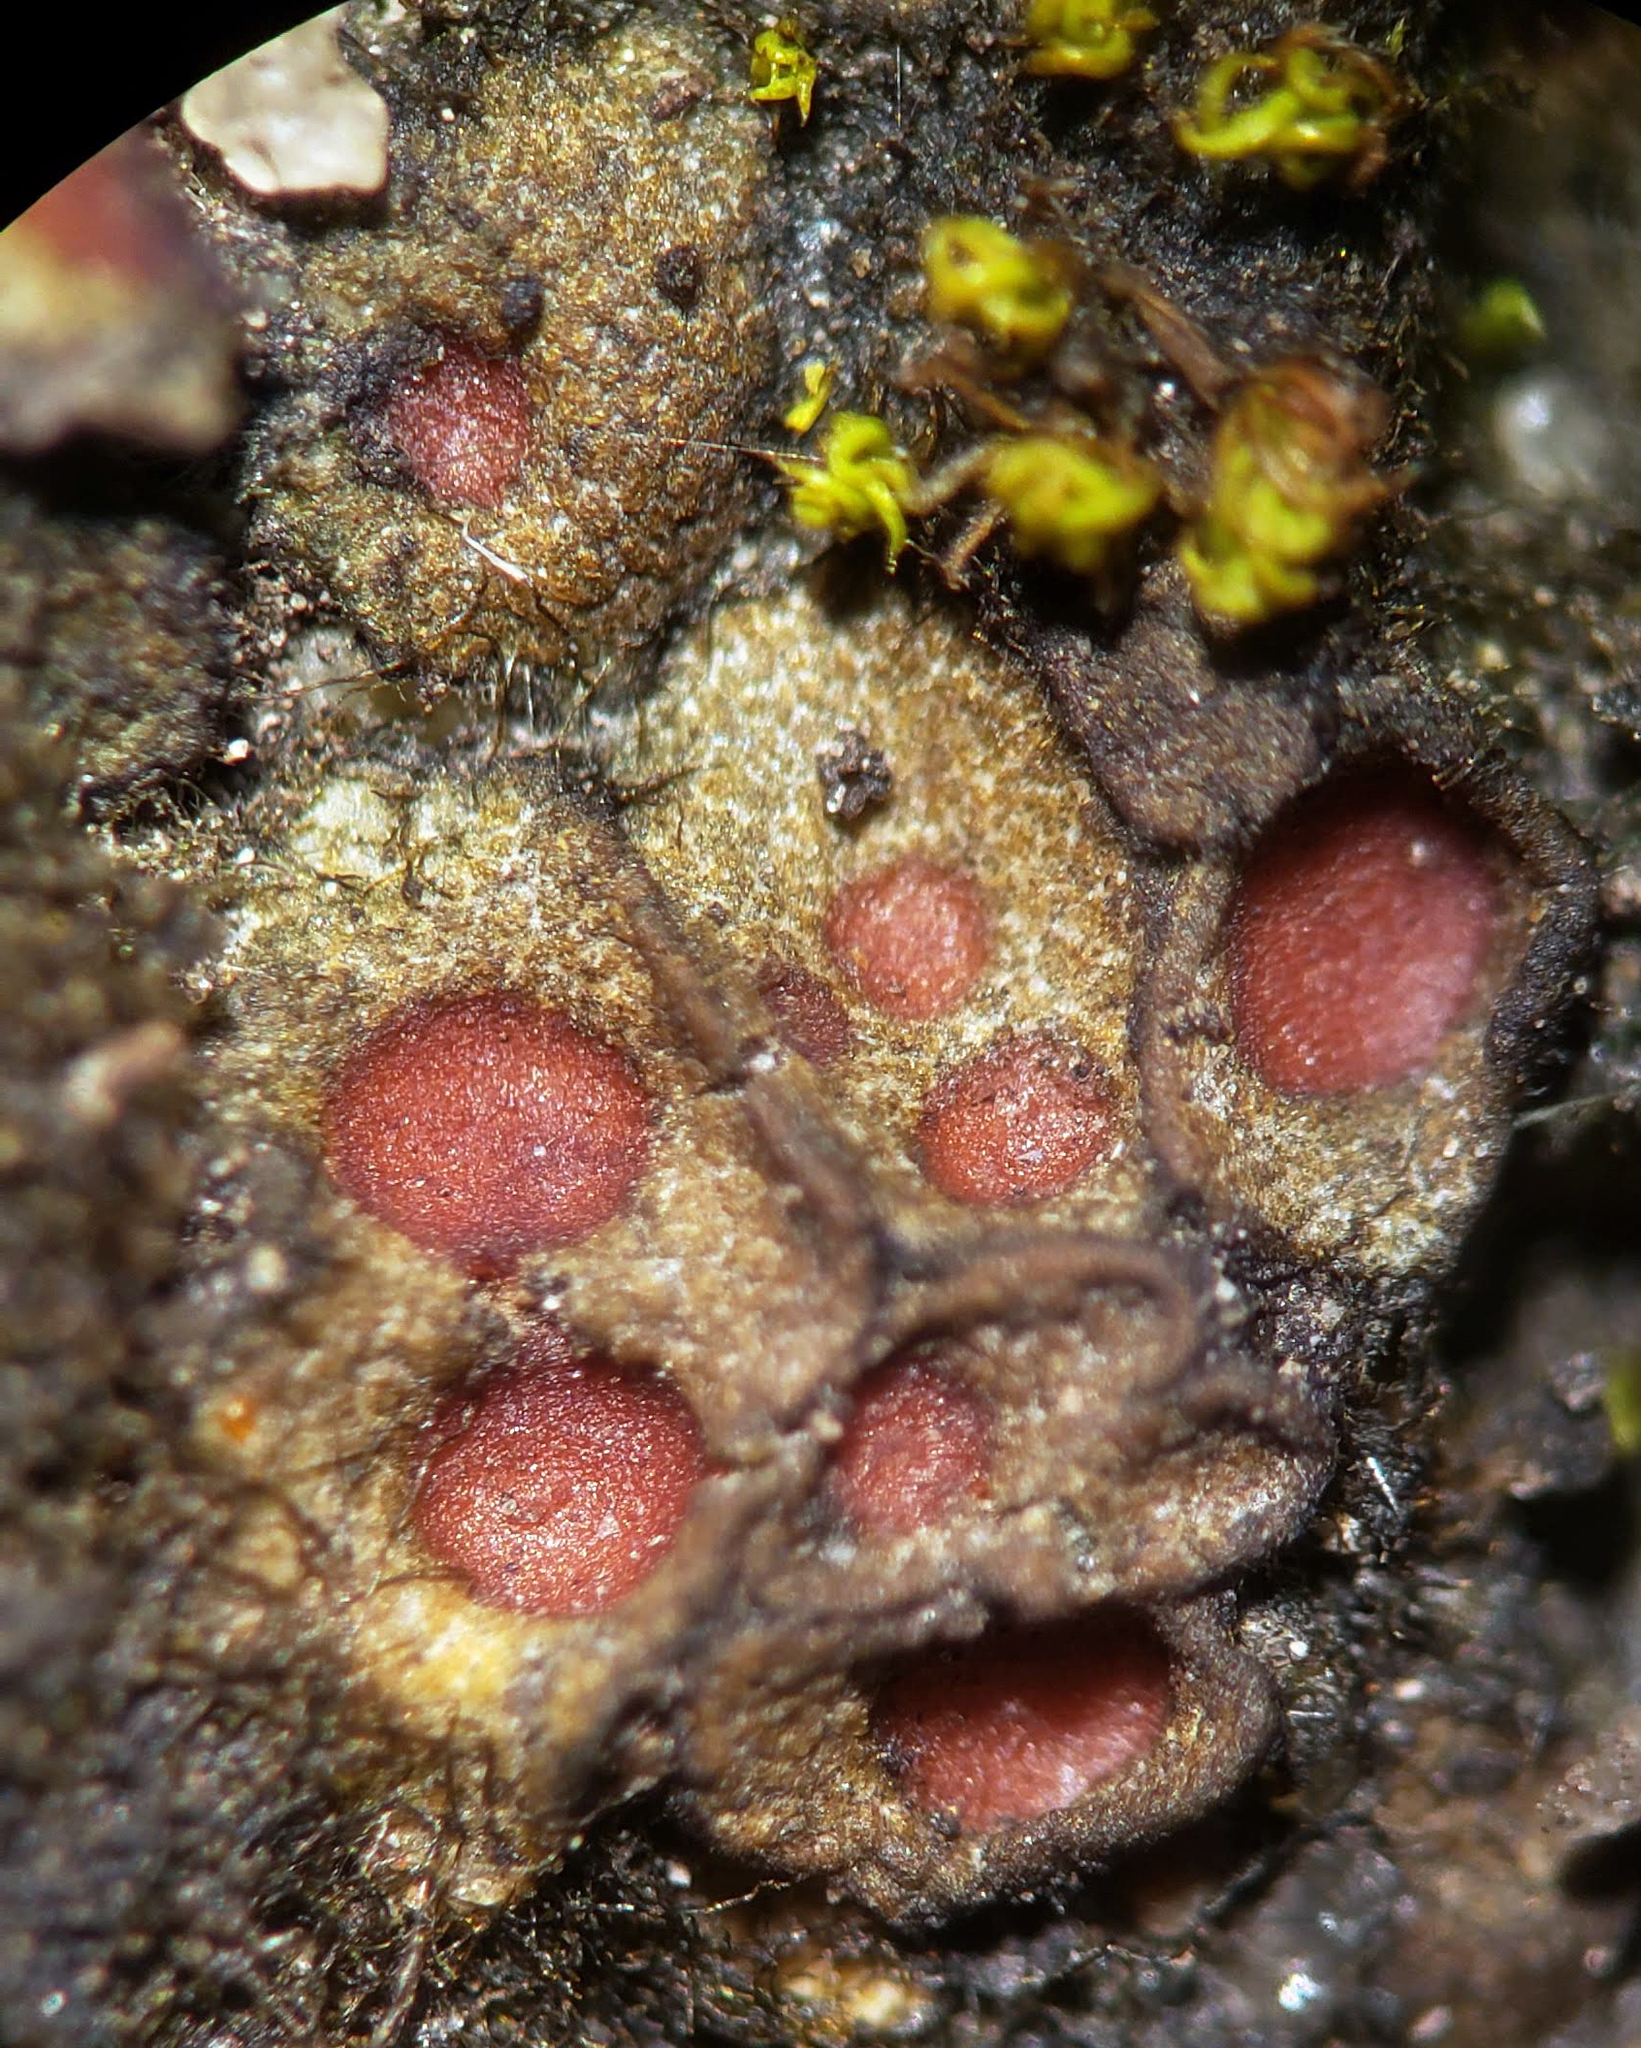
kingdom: Fungi
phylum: Ascomycota
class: Lichinomycetes
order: Lichinales
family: Lichinaceae
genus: Heppia
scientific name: Heppia adglutinata
